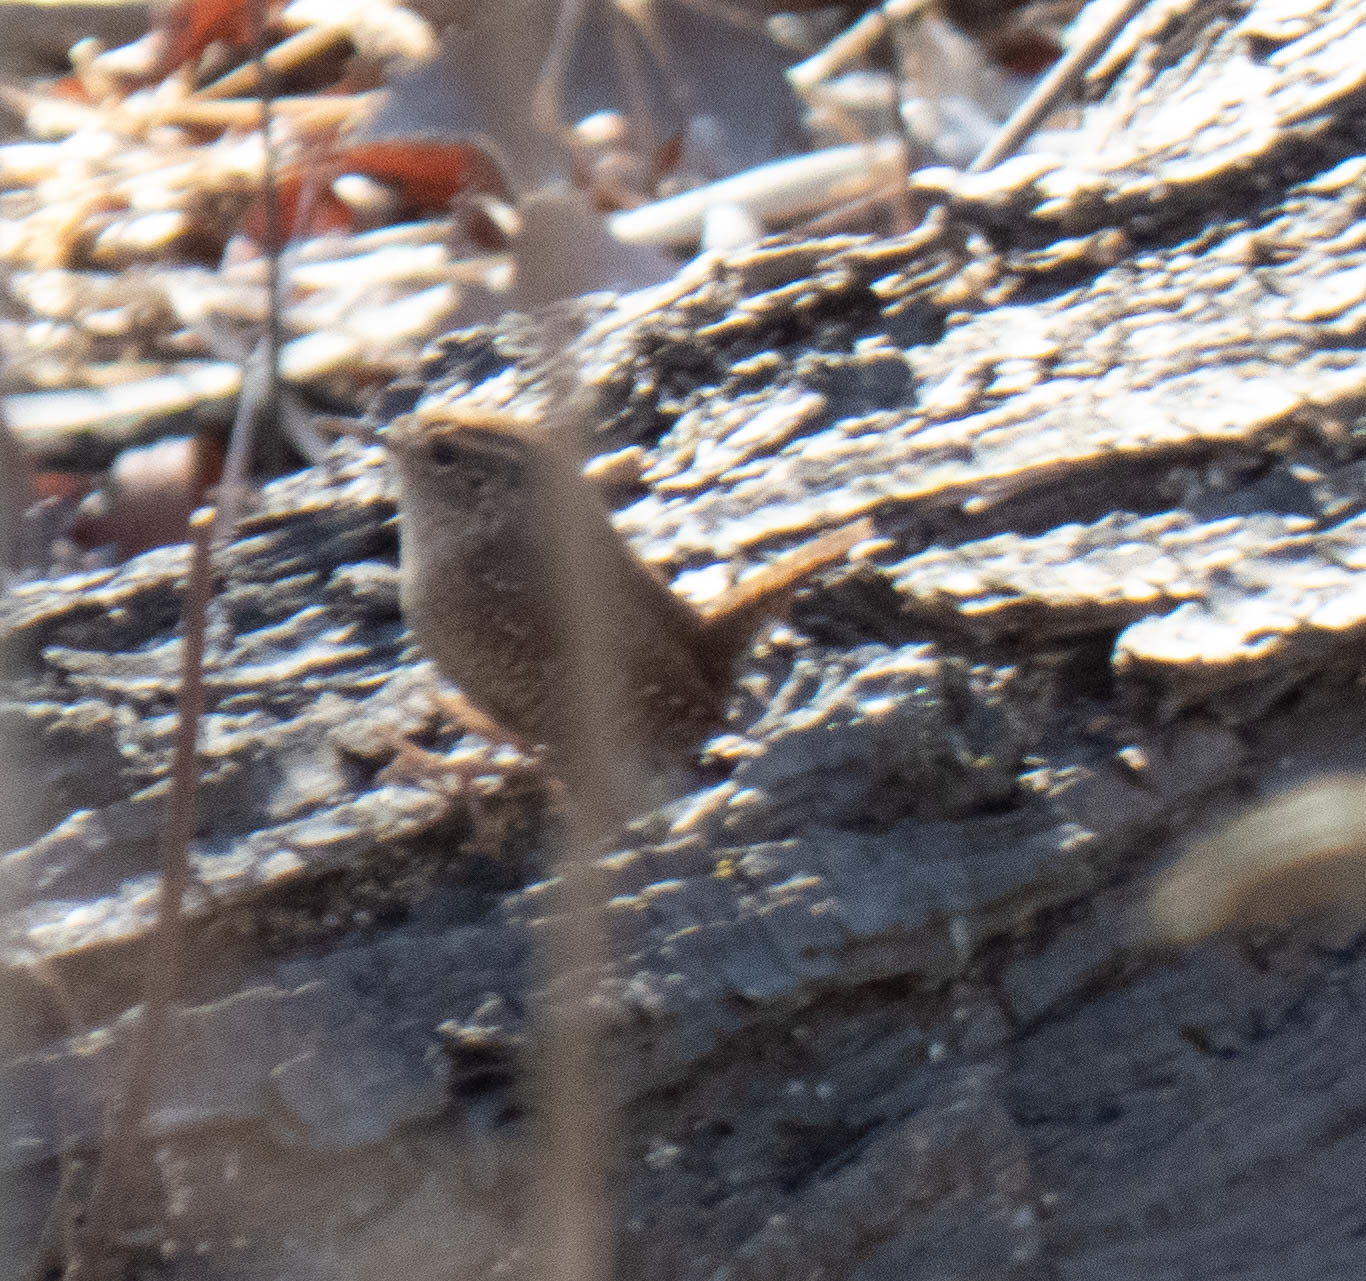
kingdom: Animalia
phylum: Chordata
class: Aves
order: Passeriformes
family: Troglodytidae
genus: Troglodytes
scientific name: Troglodytes hiemalis
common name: Winter wren
